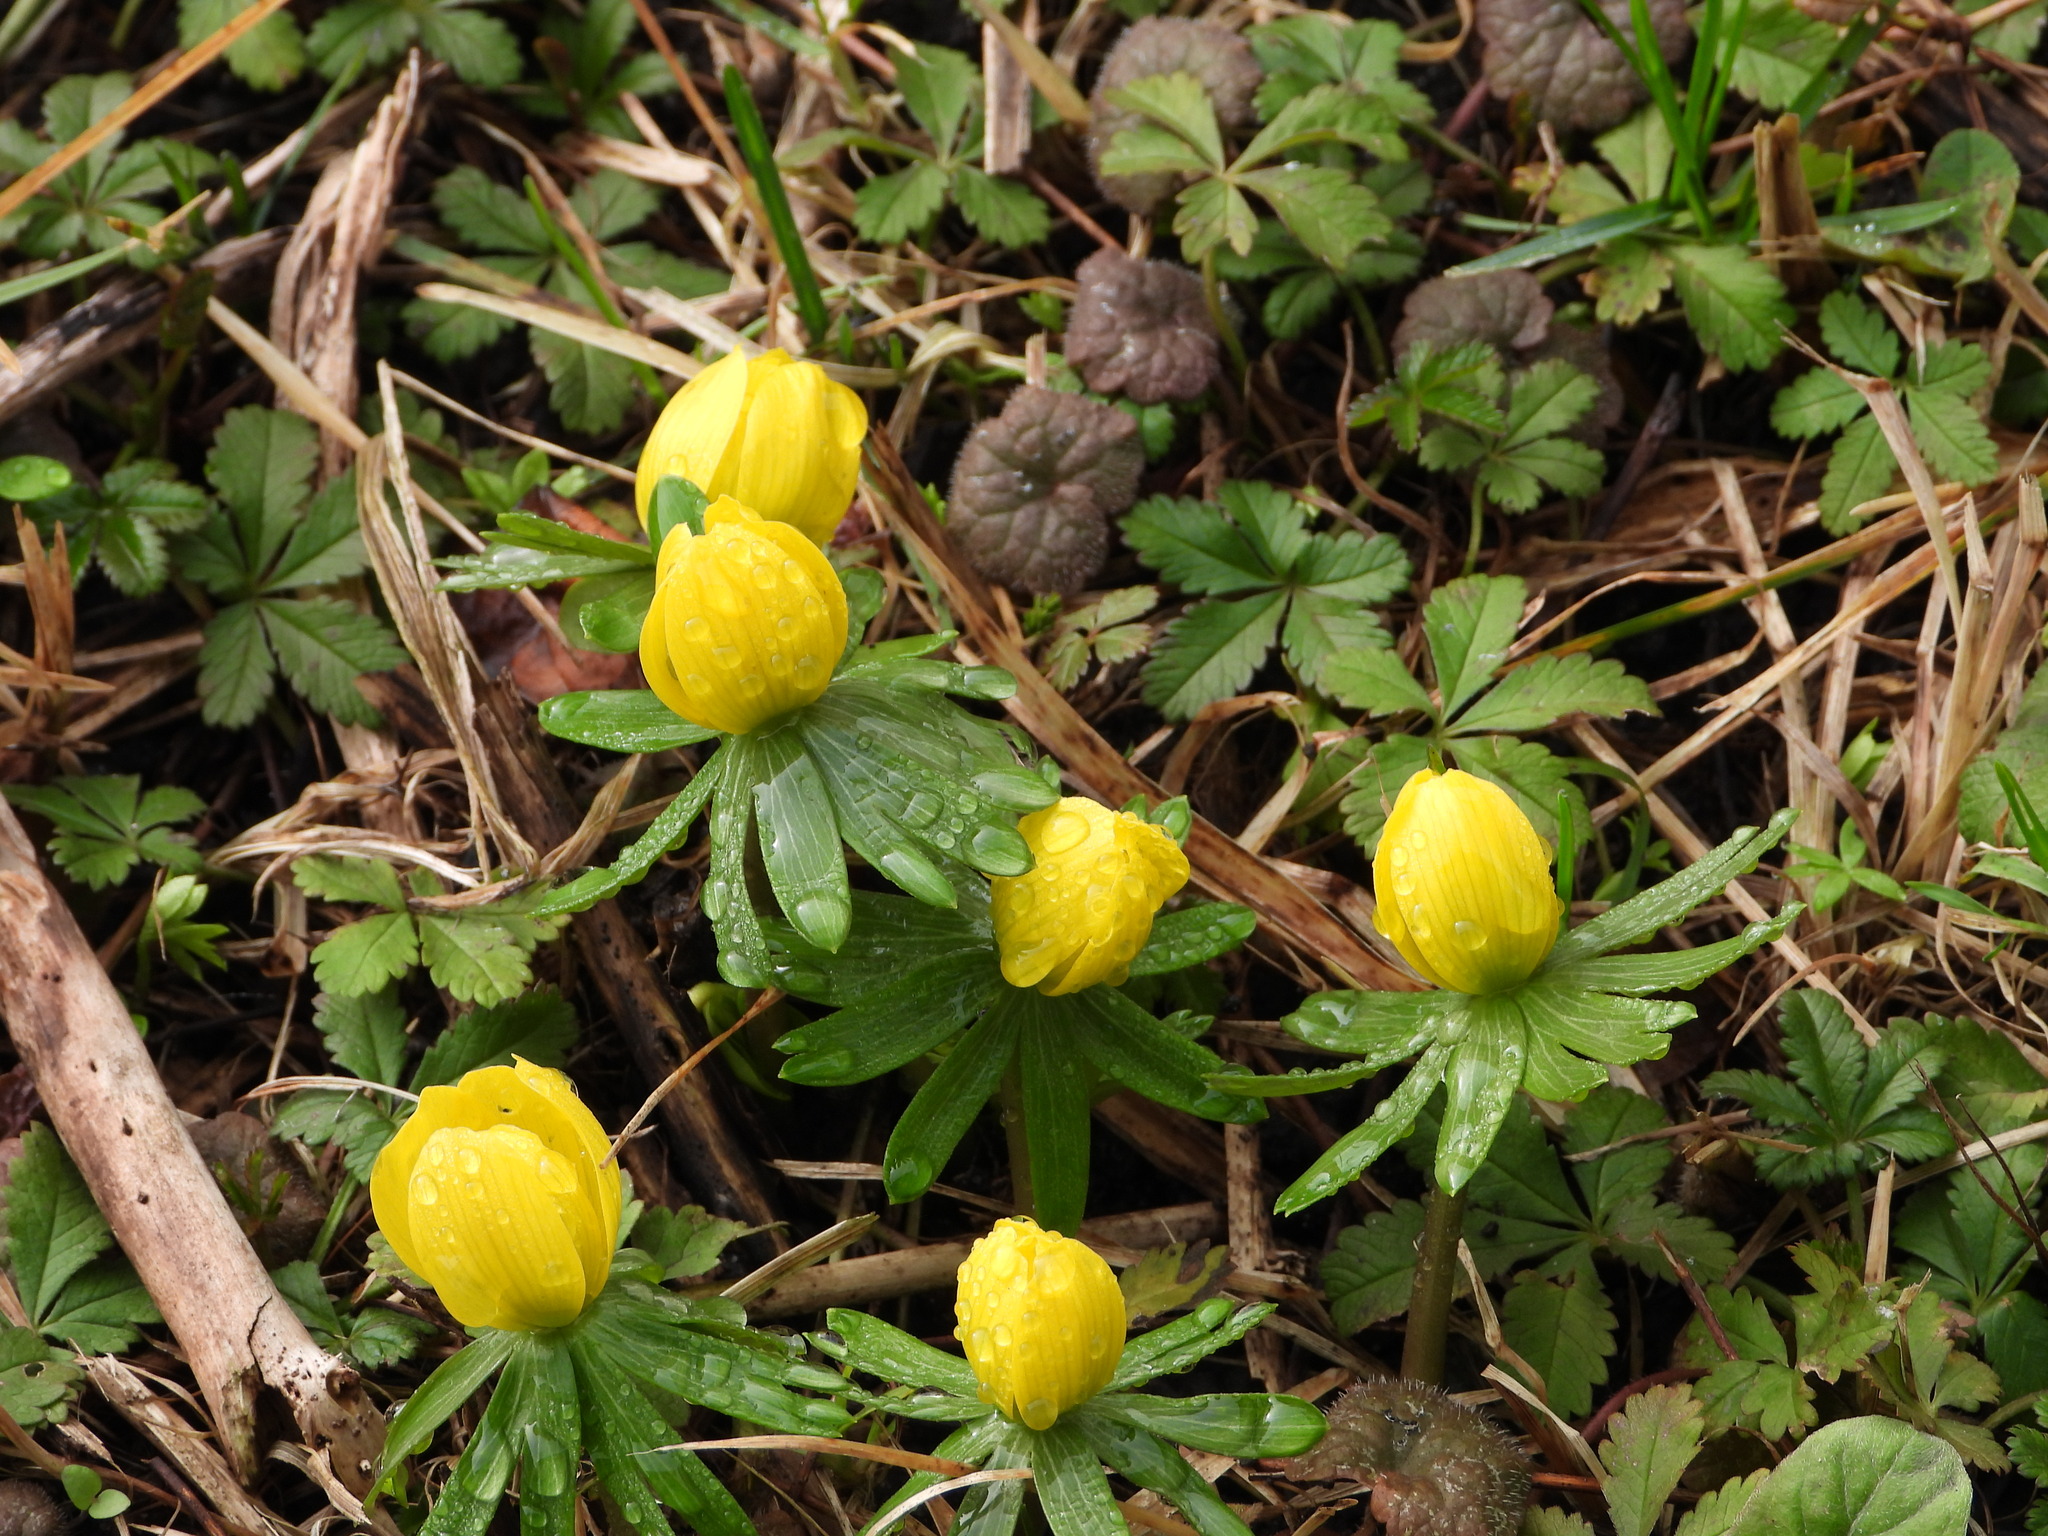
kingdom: Plantae
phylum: Tracheophyta
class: Magnoliopsida
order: Ranunculales
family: Ranunculaceae
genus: Eranthis
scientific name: Eranthis hyemalis
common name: Winter aconite
